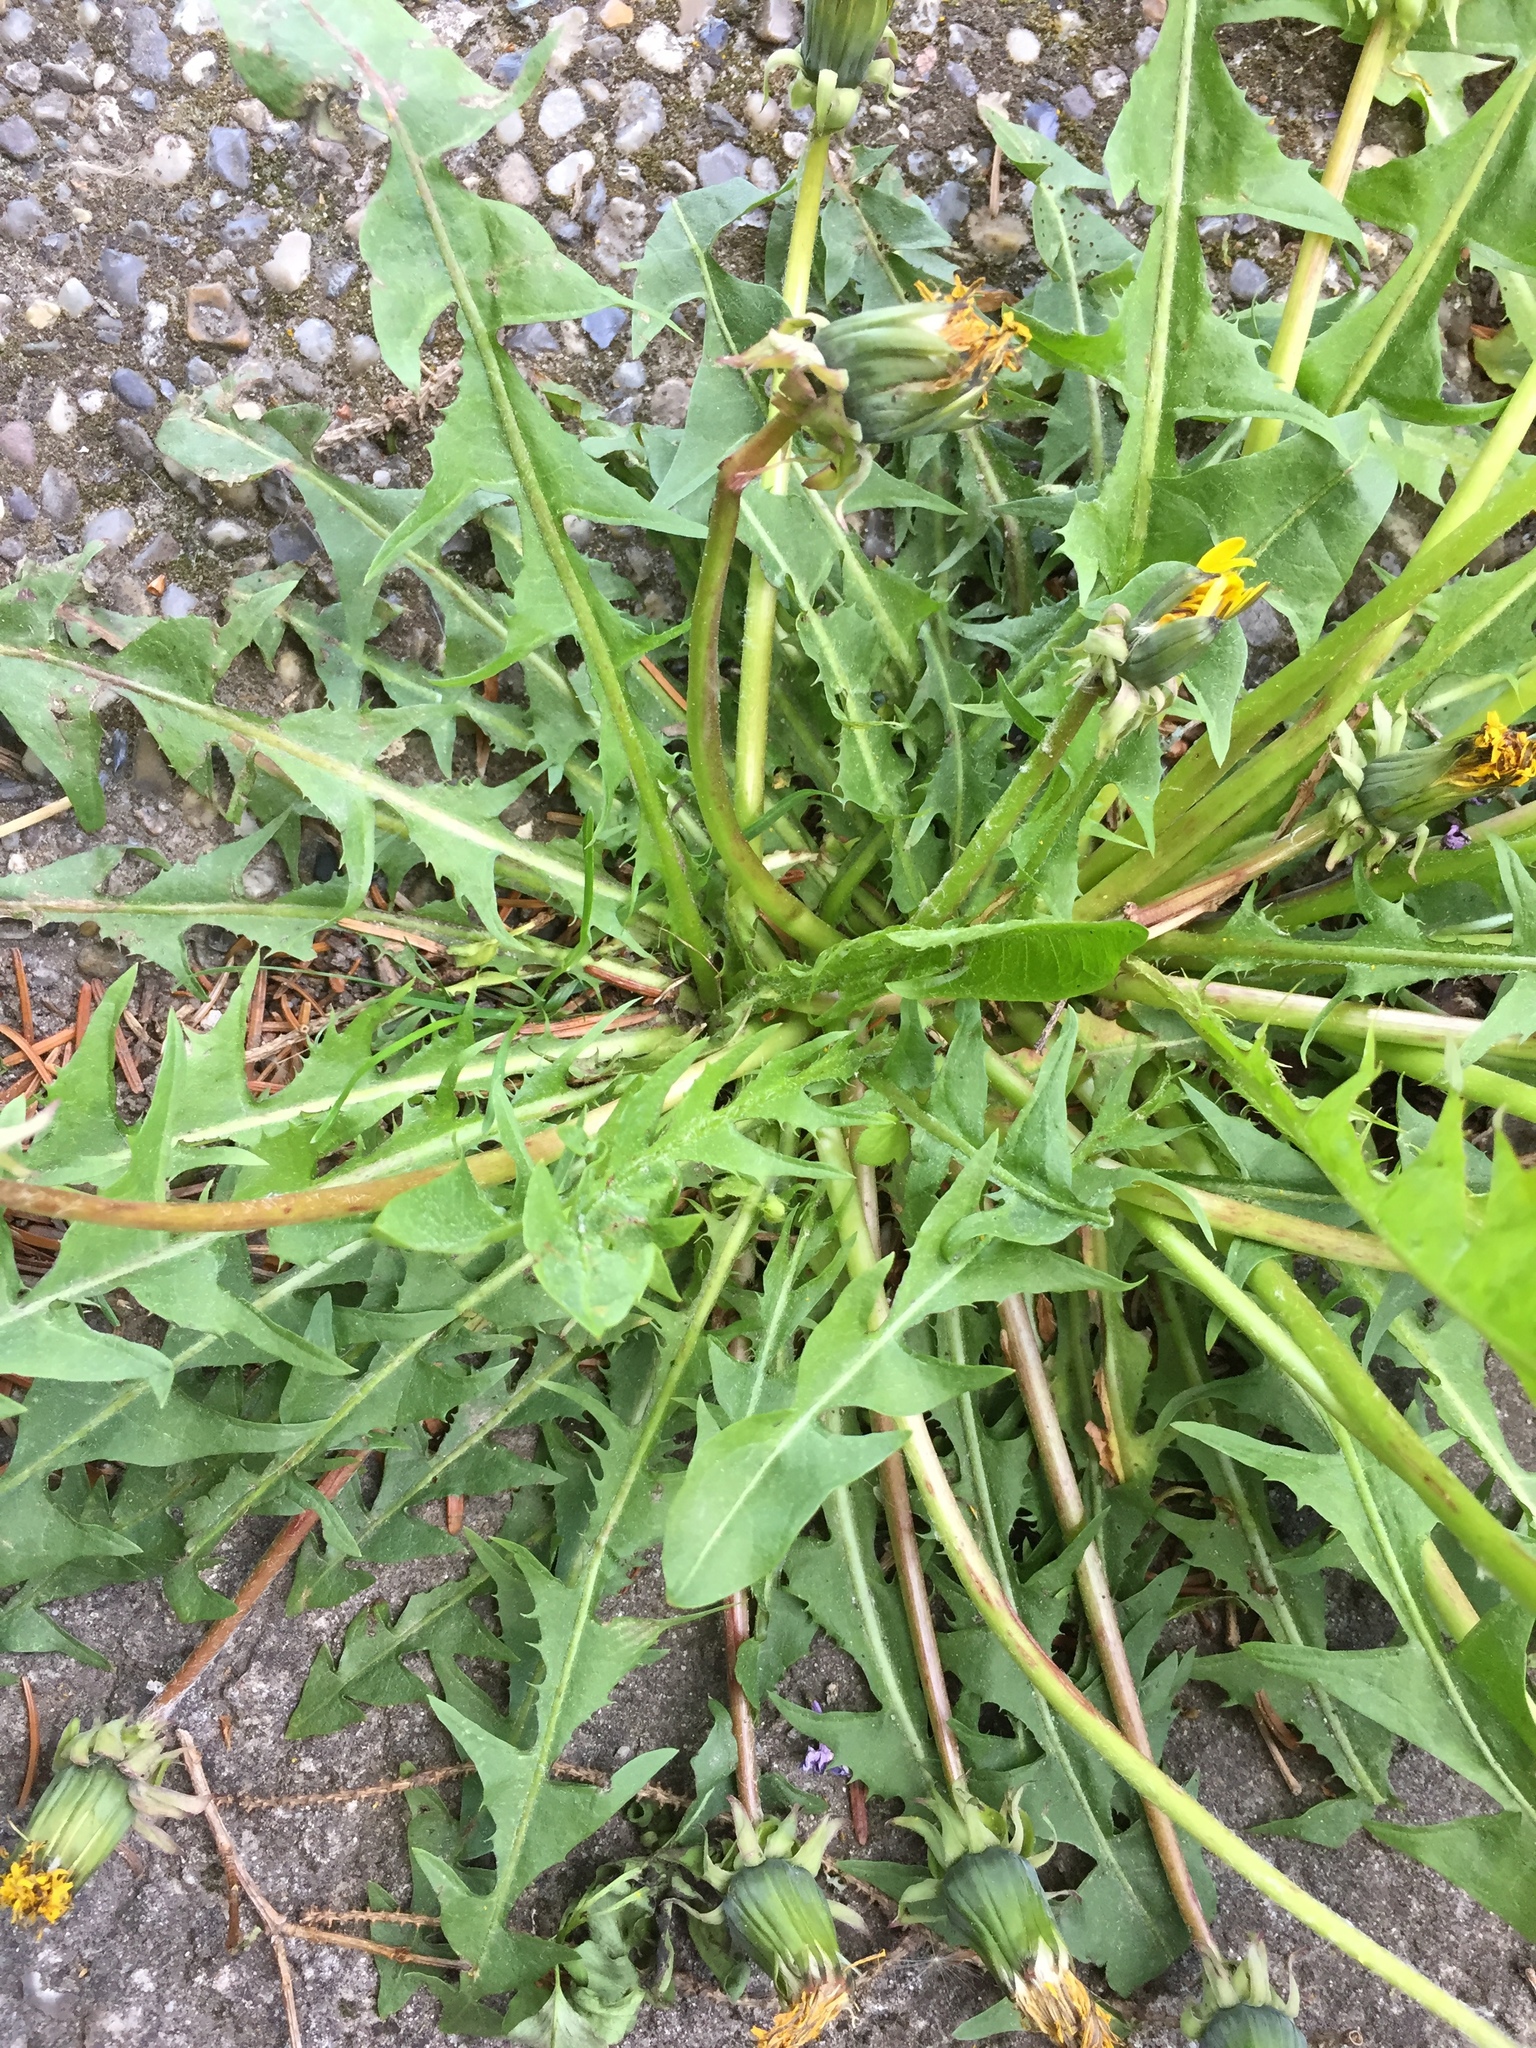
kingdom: Plantae
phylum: Tracheophyta
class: Magnoliopsida
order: Asterales
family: Asteraceae
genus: Taraxacum
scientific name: Taraxacum pallidipes
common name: Grey-bracted dandelion
